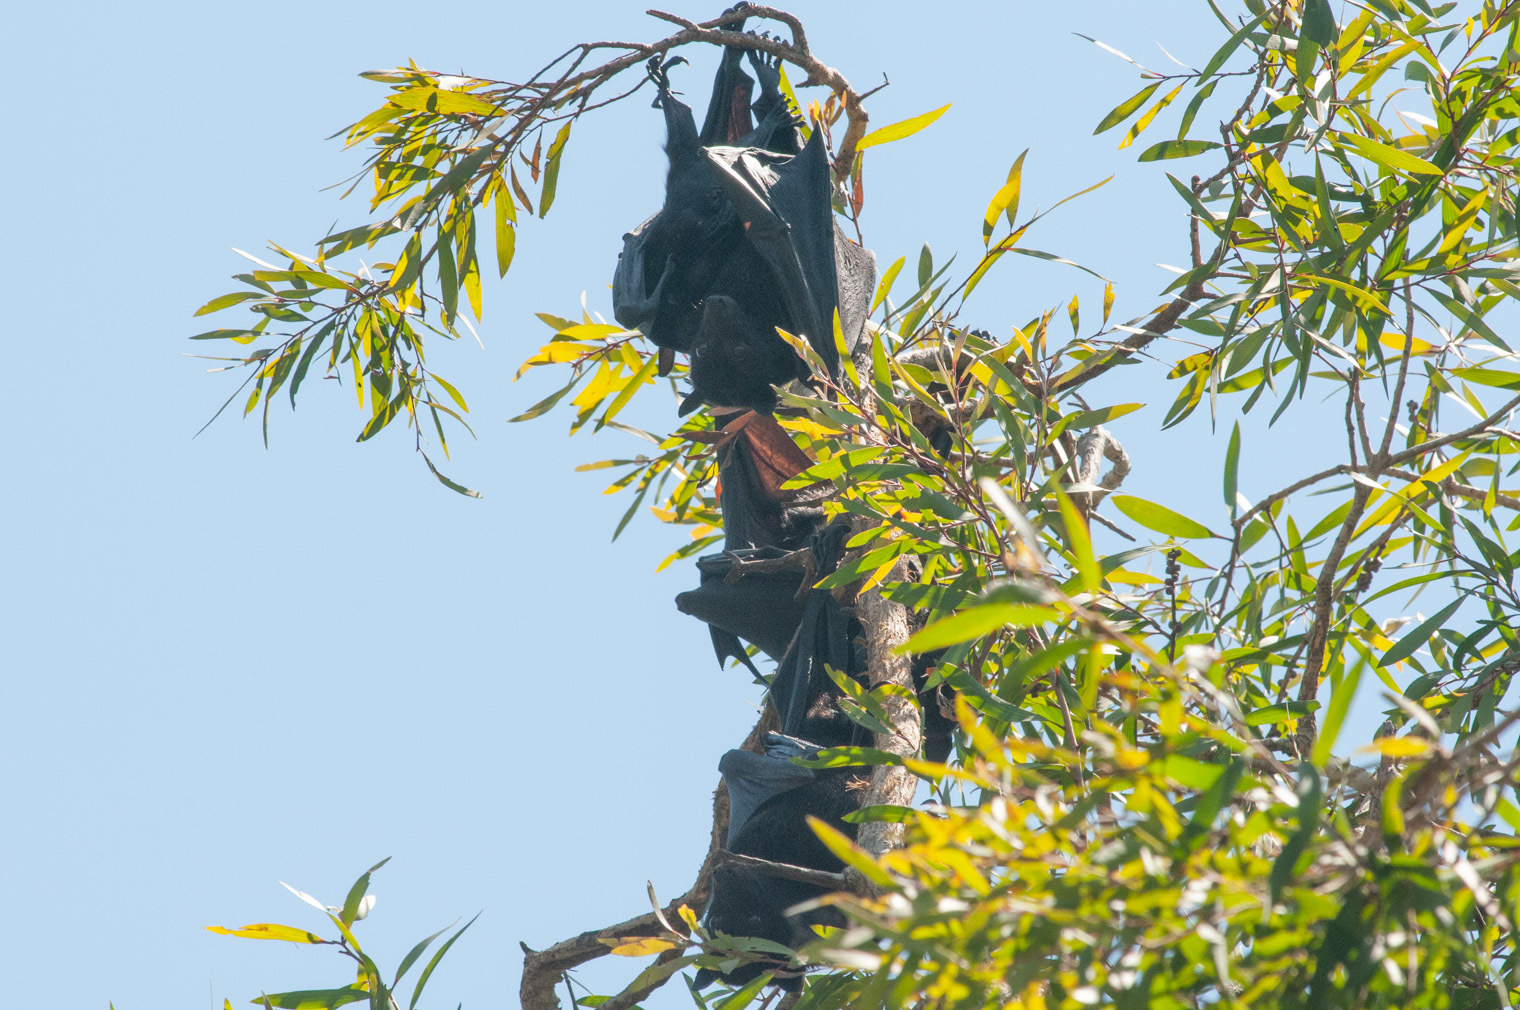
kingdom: Animalia
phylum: Chordata
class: Mammalia
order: Chiroptera
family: Pteropodidae
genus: Pteropus
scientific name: Pteropus alecto
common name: Black flying fox
